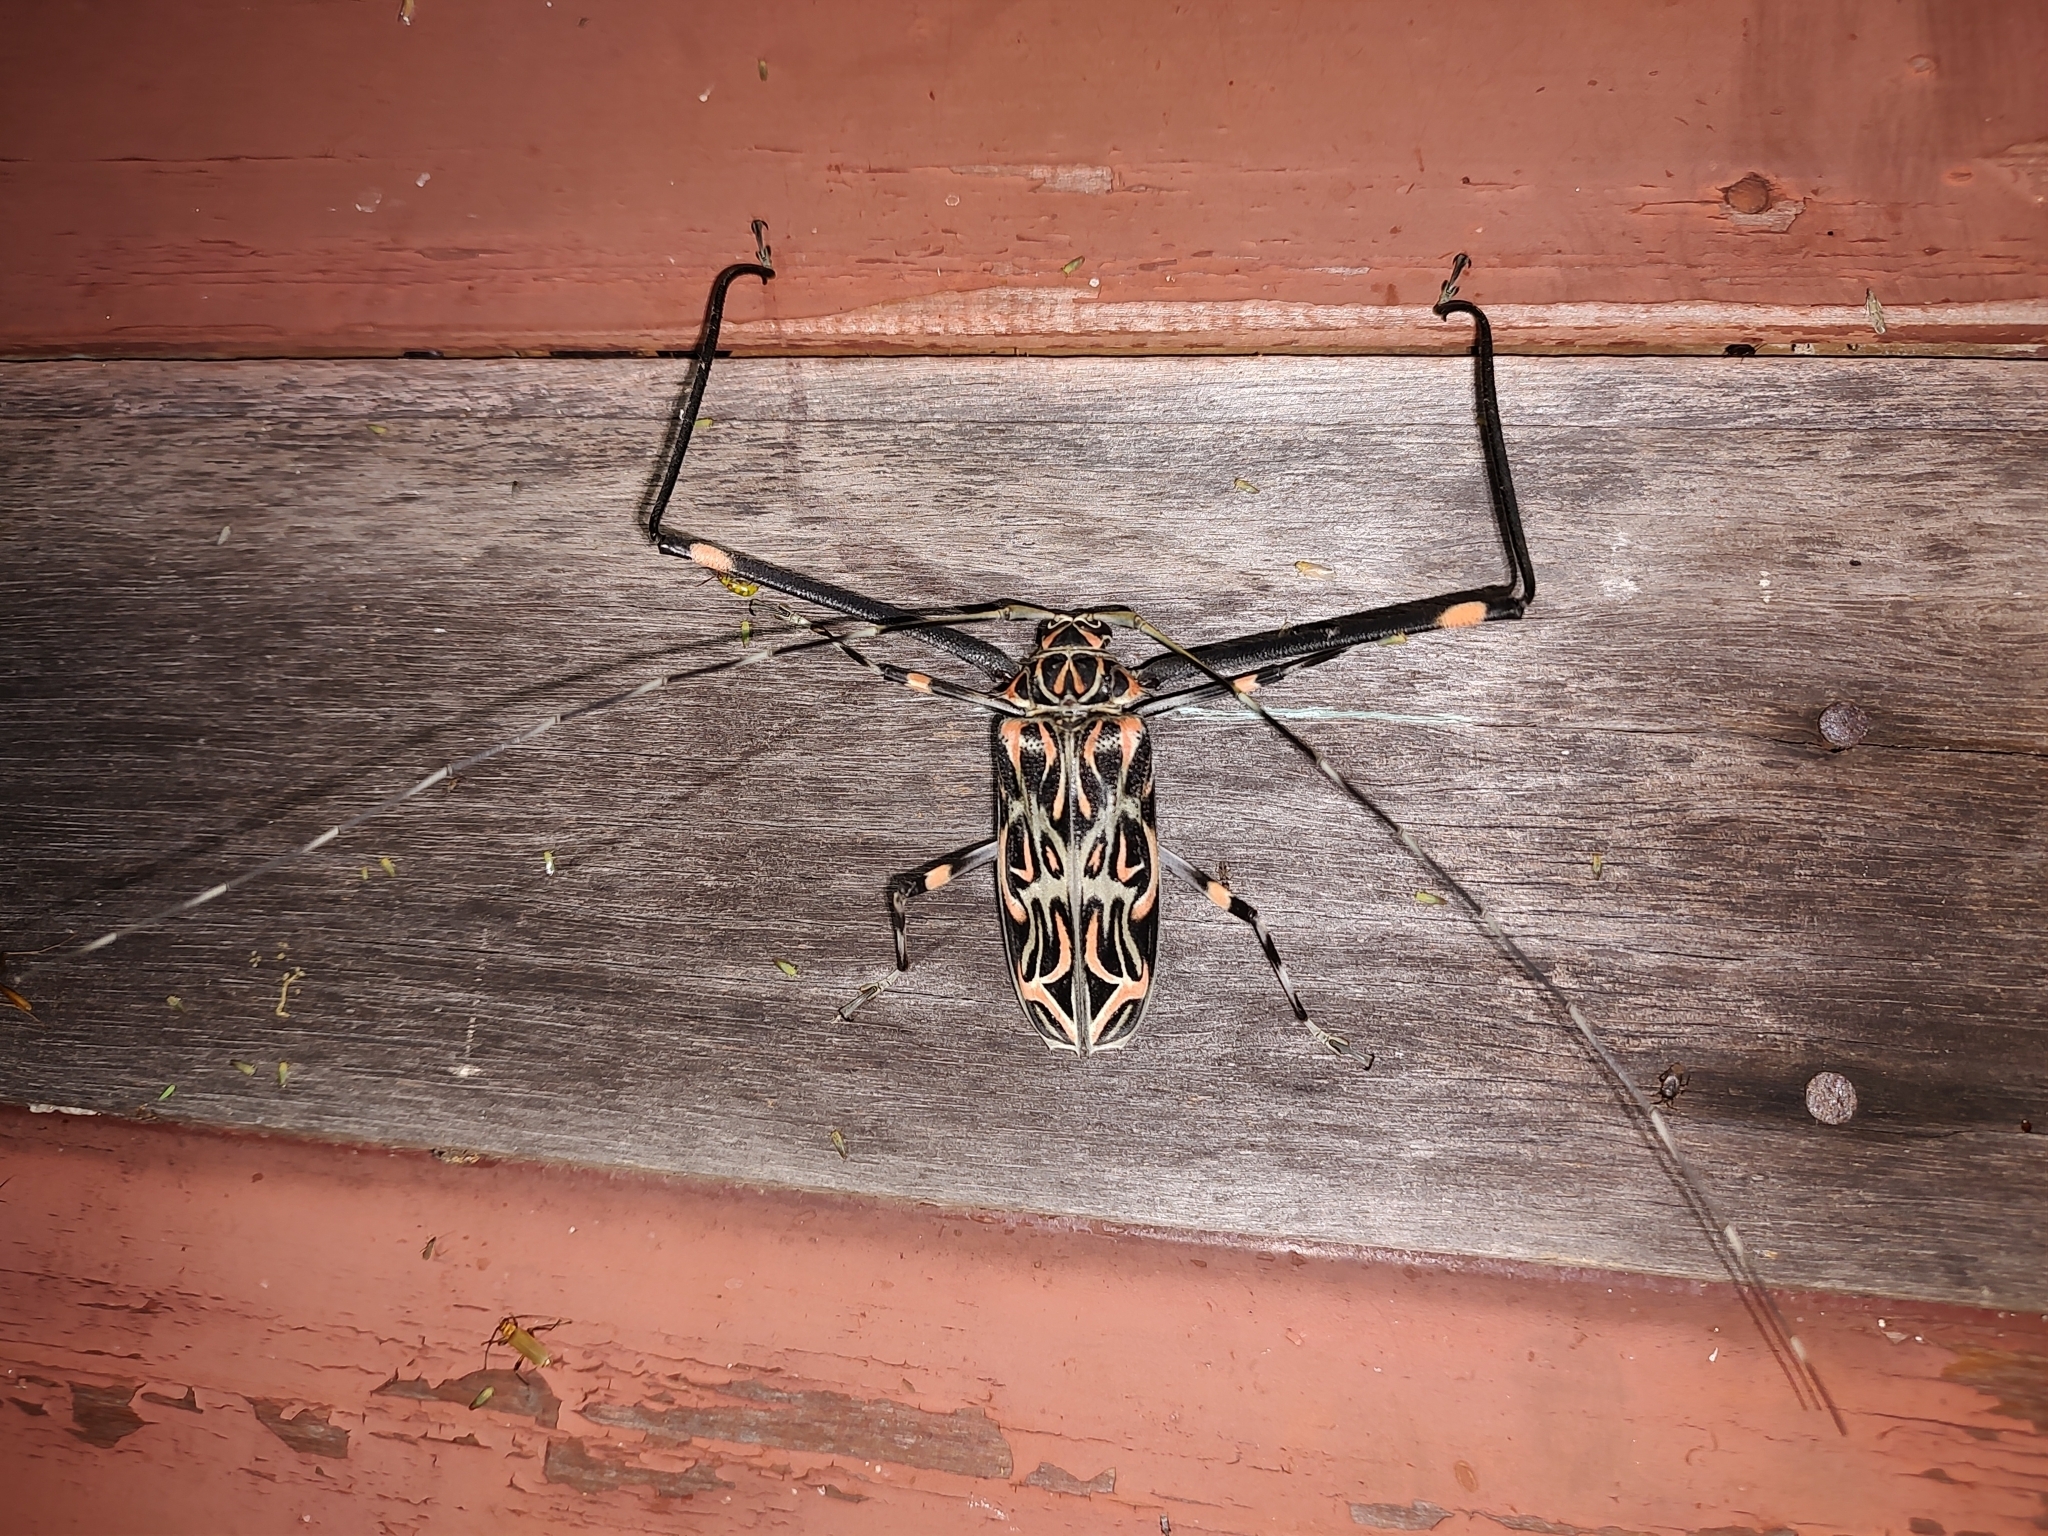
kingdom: Animalia
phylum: Arthropoda
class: Insecta
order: Coleoptera
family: Cerambycidae
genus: Acrocinus
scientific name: Acrocinus longimanus
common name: Arlequin
